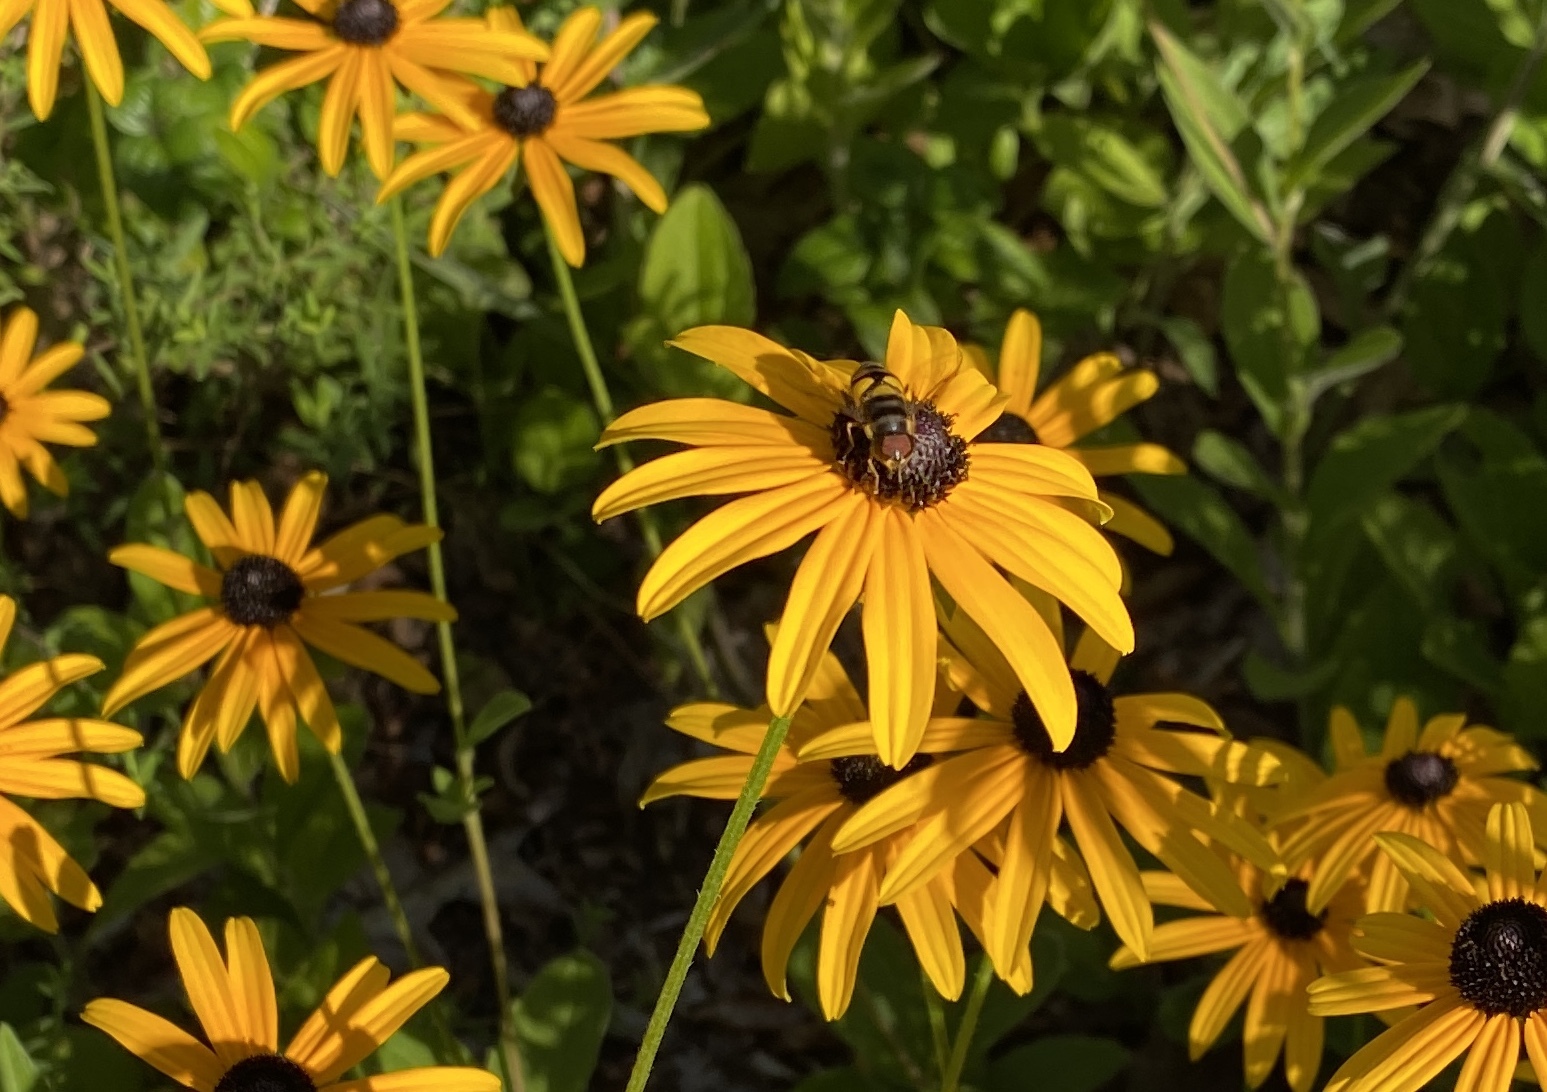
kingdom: Animalia
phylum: Arthropoda
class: Insecta
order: Diptera
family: Syrphidae
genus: Eristalis
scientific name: Eristalis transversa
